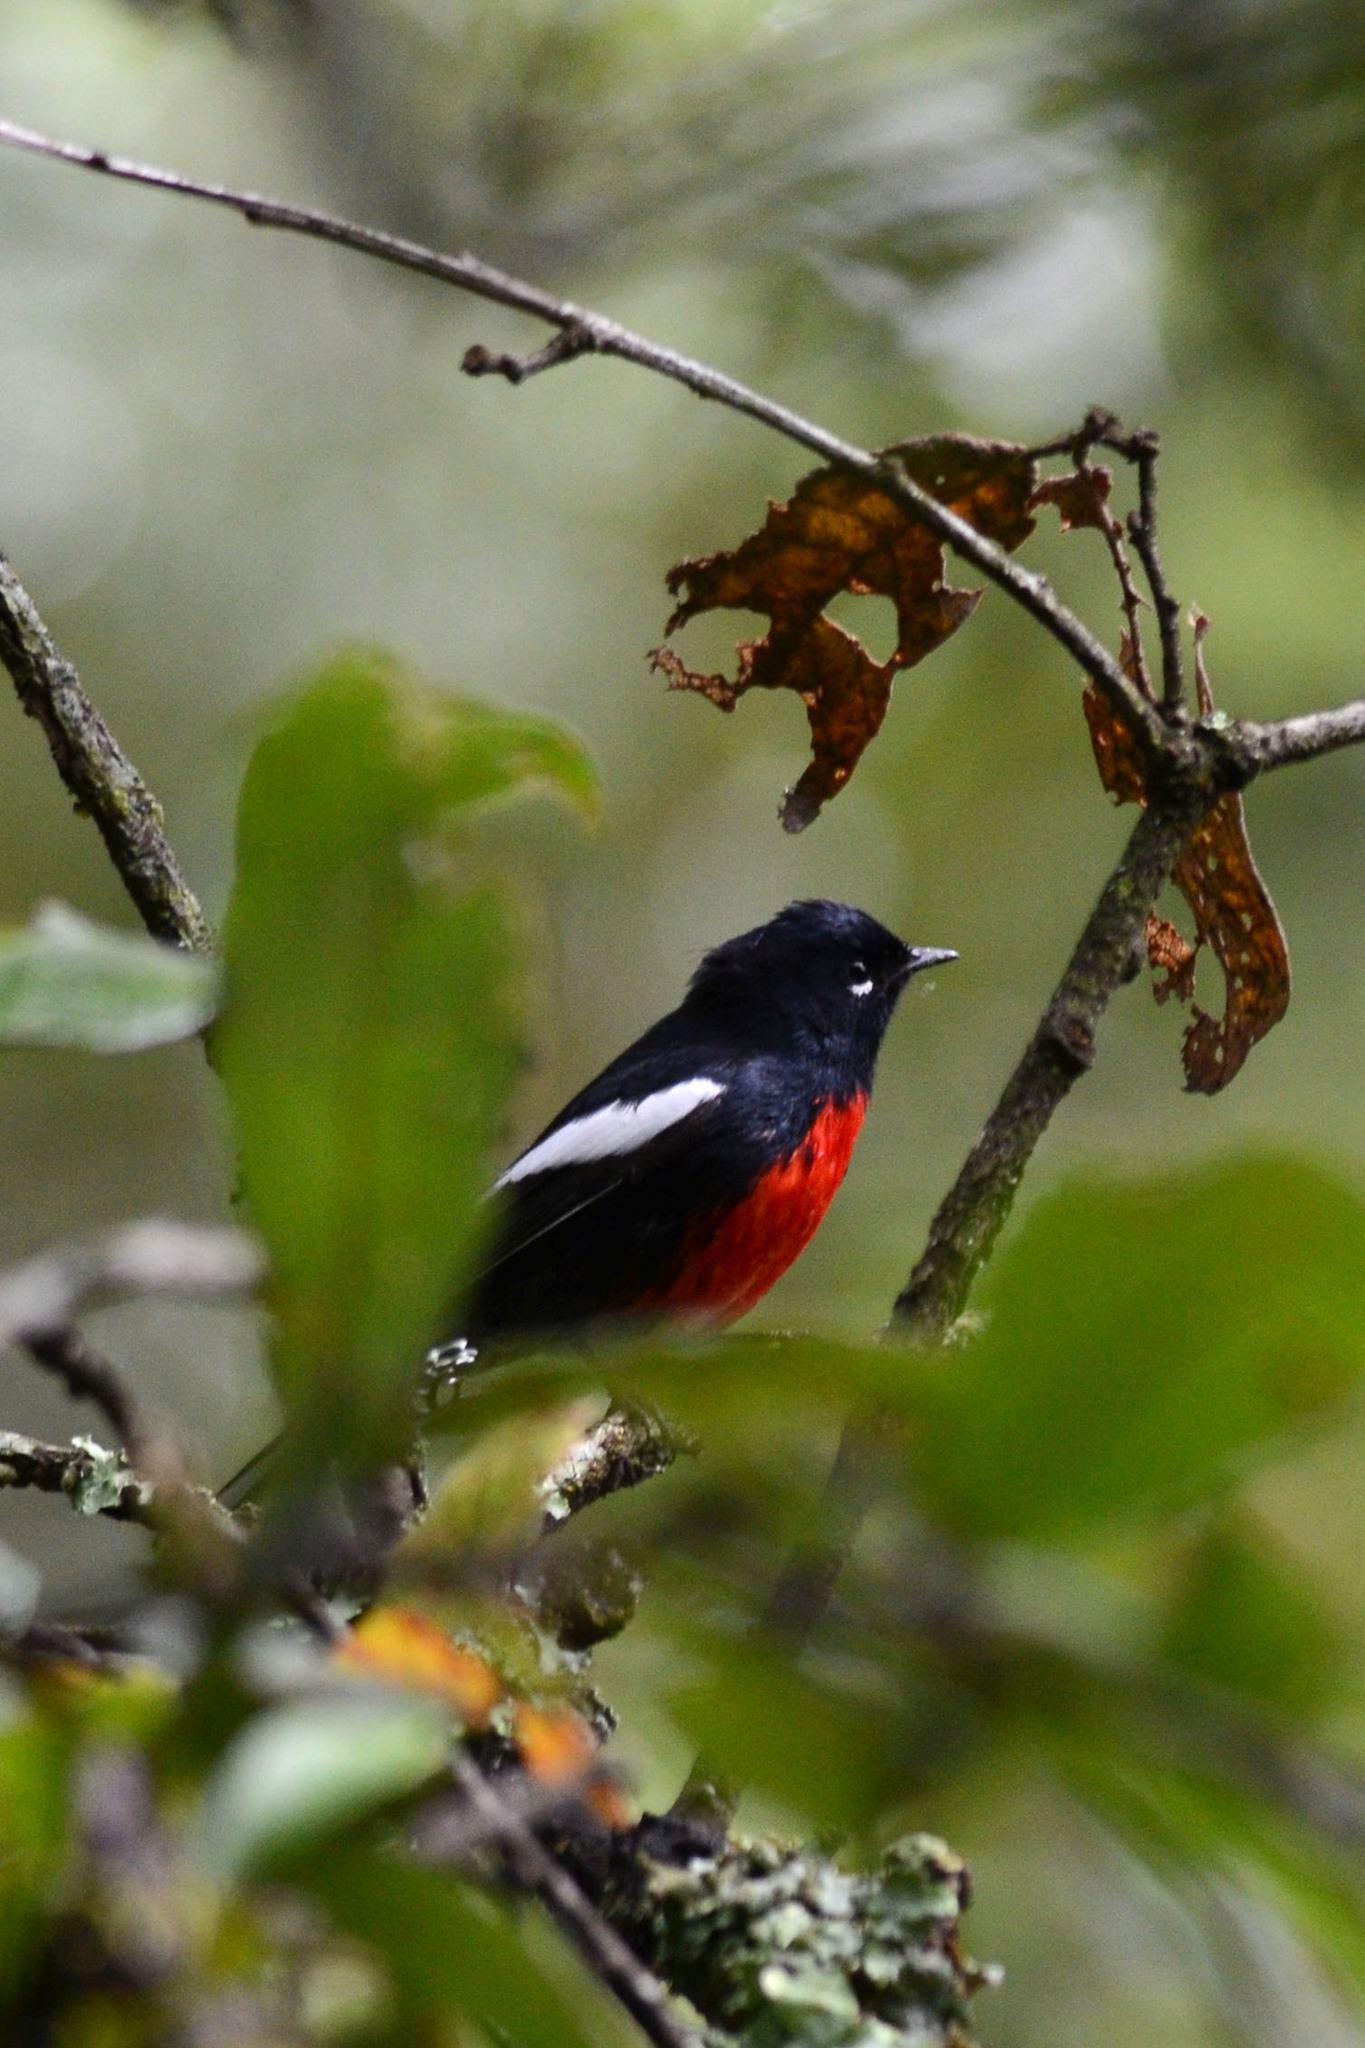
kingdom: Animalia
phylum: Chordata
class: Aves
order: Passeriformes
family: Parulidae
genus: Myioborus
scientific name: Myioborus pictus
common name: Painted whitestart
